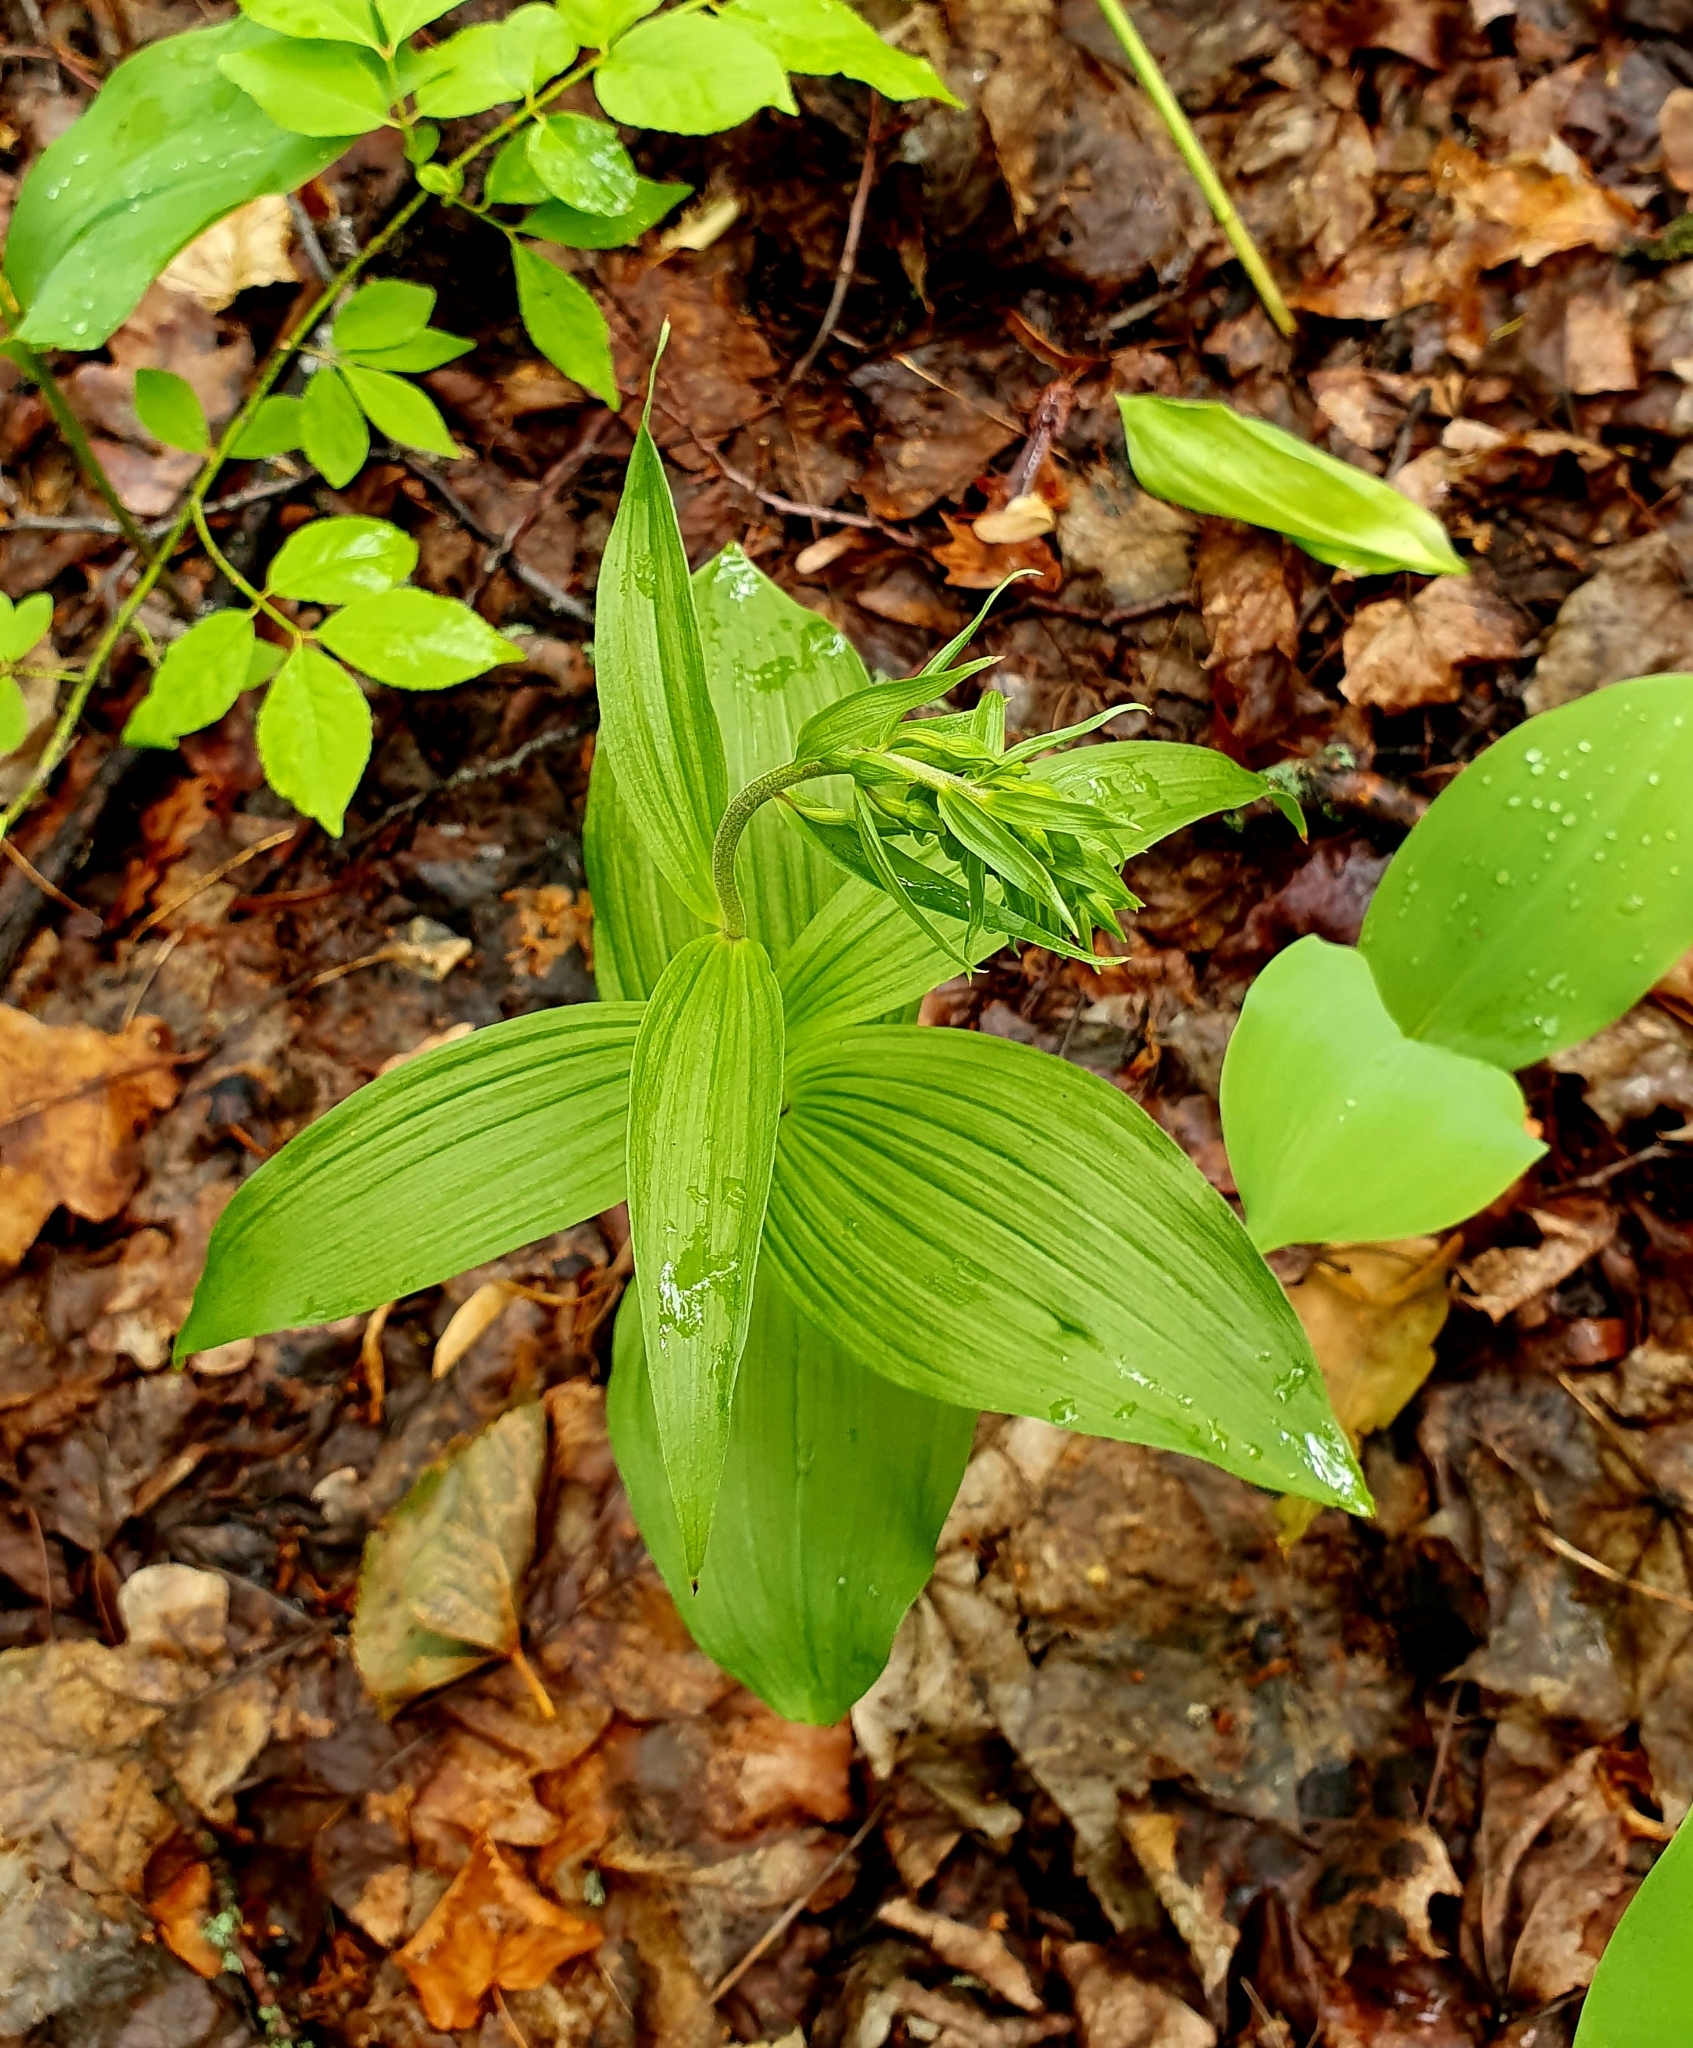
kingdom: Plantae
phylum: Tracheophyta
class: Liliopsida
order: Asparagales
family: Orchidaceae
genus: Epipactis
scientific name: Epipactis helleborine
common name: Broad-leaved helleborine
